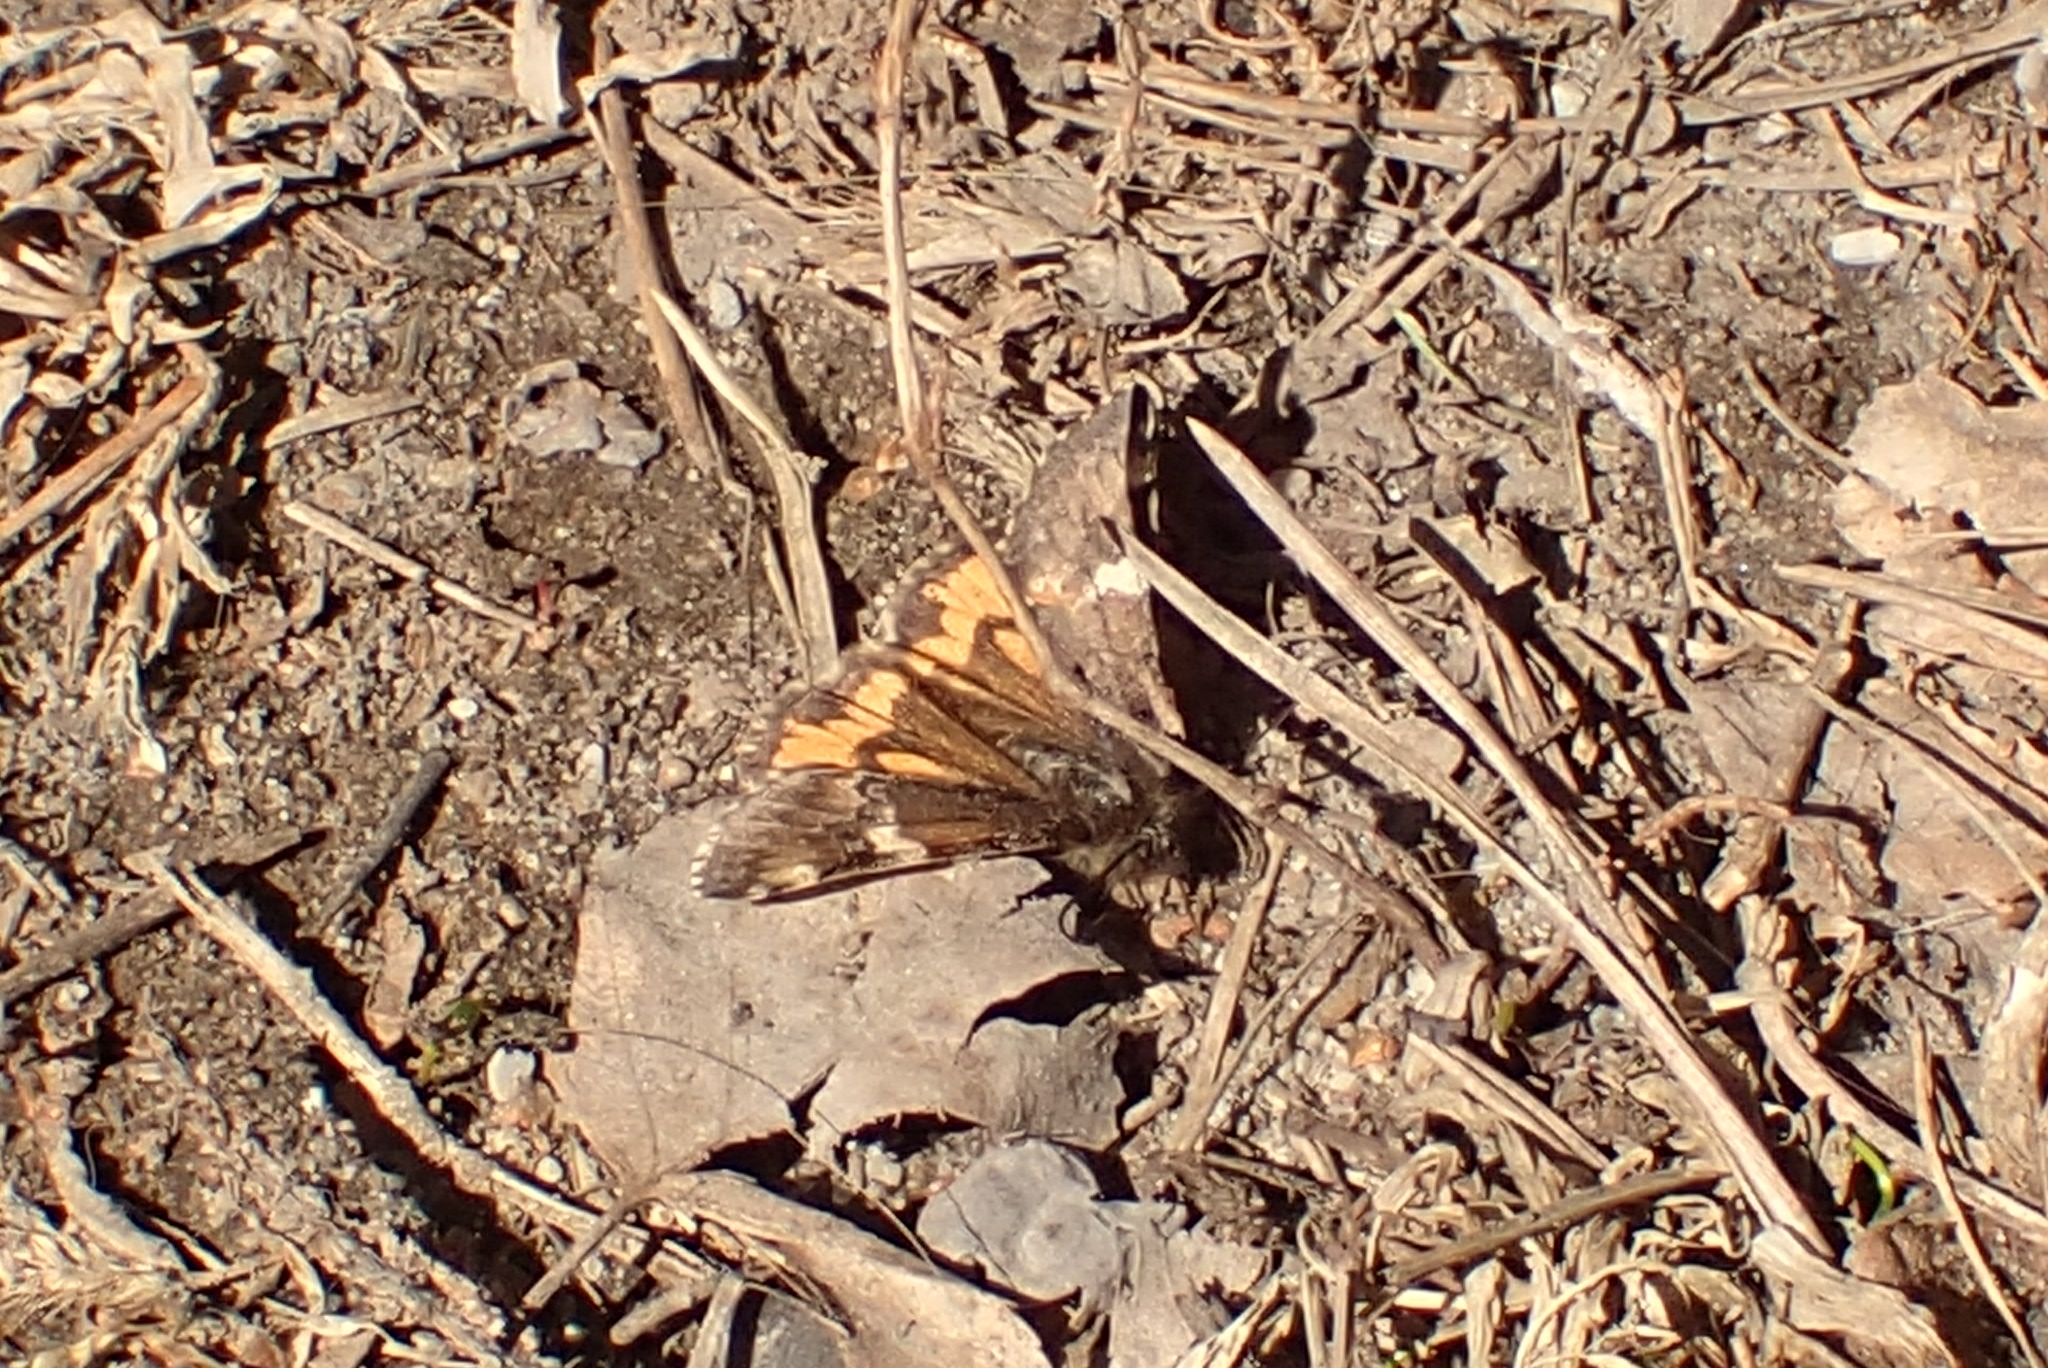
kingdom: Animalia
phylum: Arthropoda
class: Insecta
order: Lepidoptera
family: Geometridae
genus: Archiearis
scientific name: Archiearis parthenias
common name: Orange underwing
